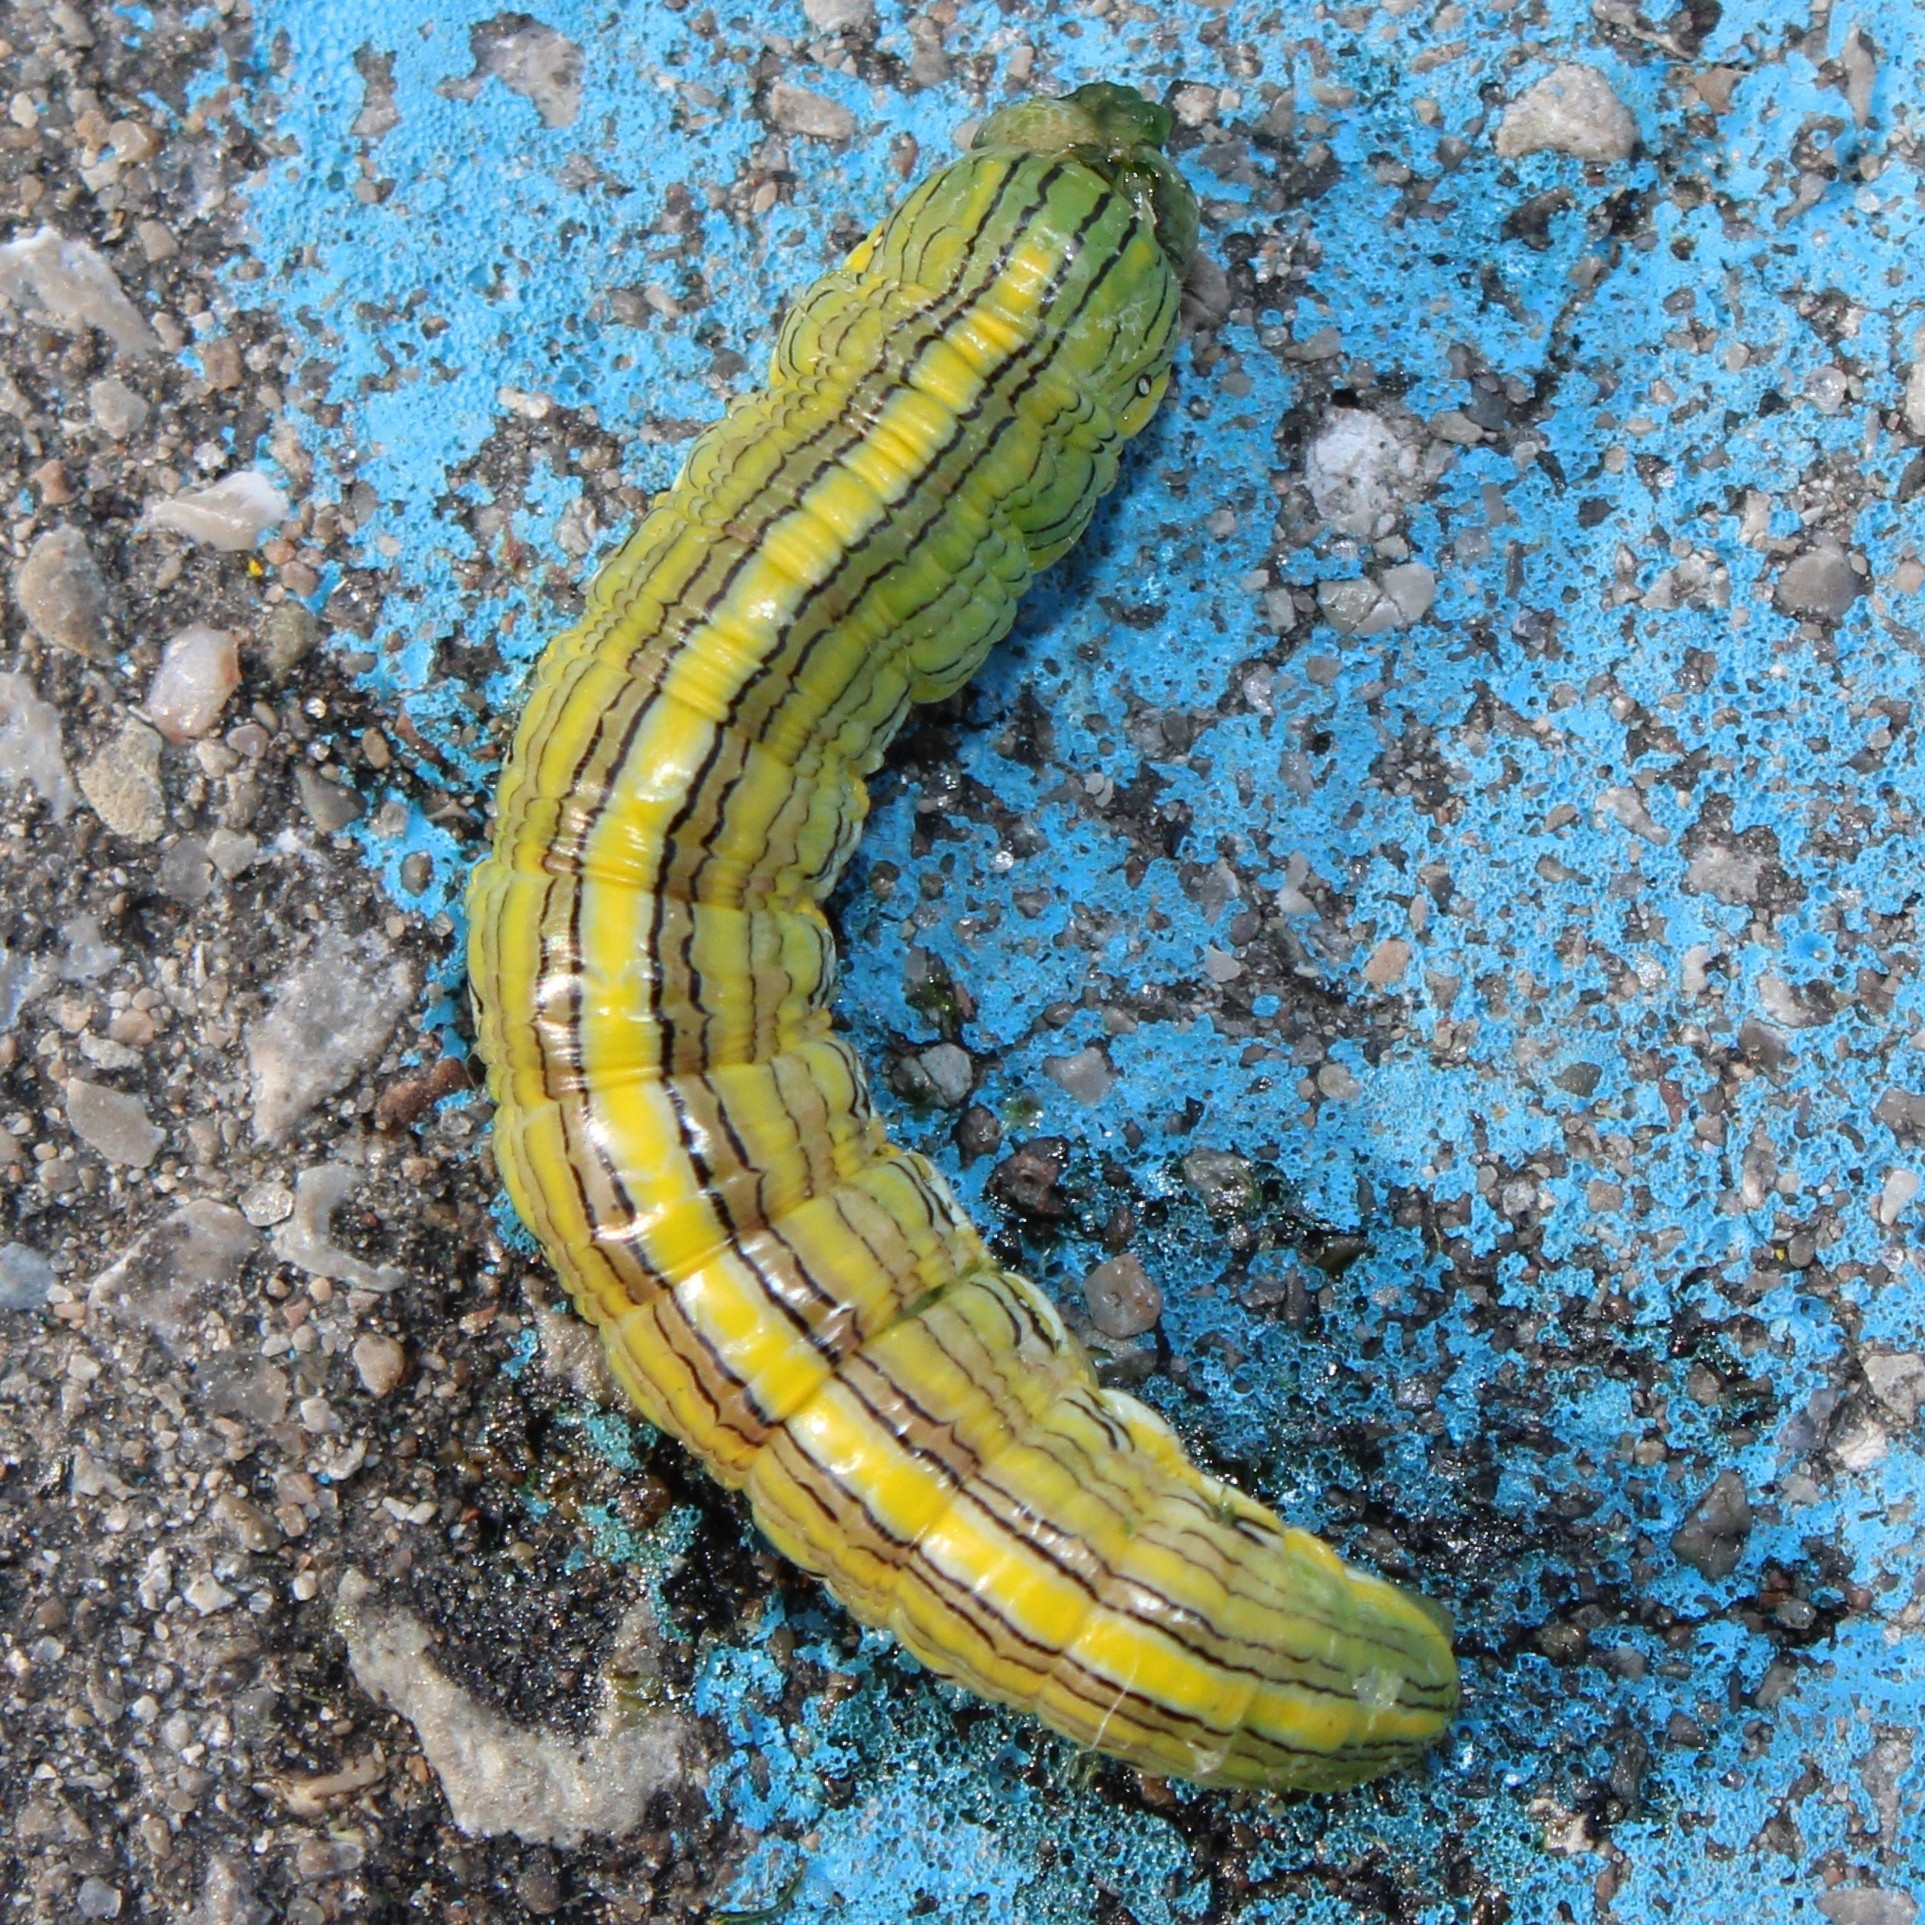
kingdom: Animalia
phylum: Arthropoda
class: Insecta
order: Lepidoptera
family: Noctuidae
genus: Cucullia
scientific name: Cucullia asteroides
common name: Asteroid moth
